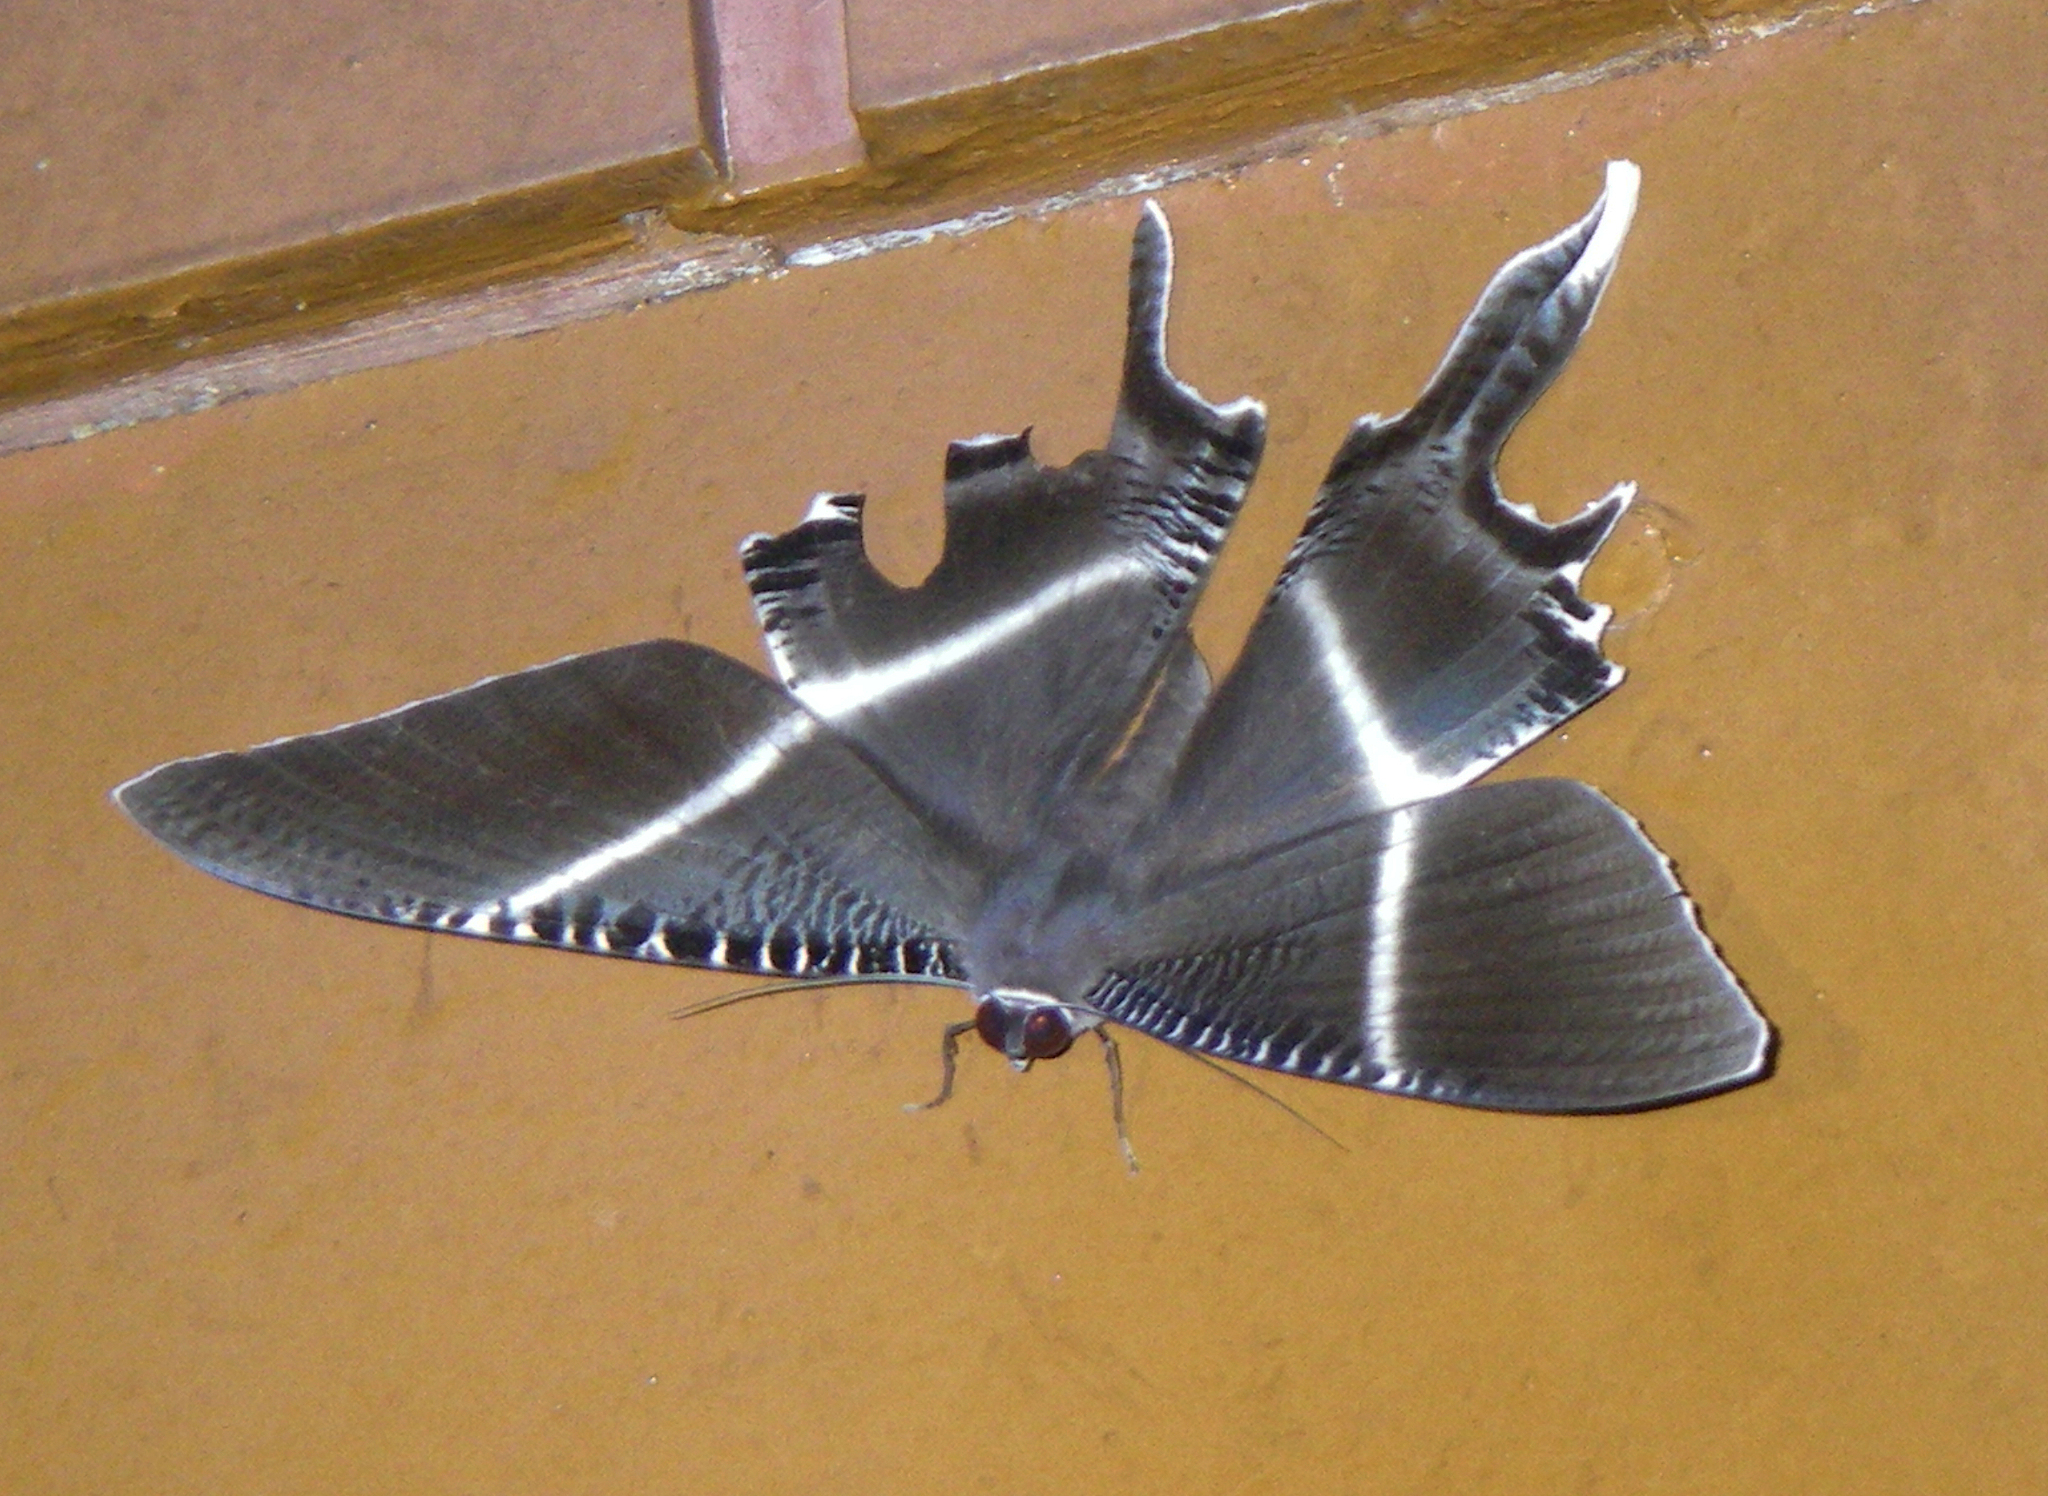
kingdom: Animalia
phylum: Arthropoda
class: Insecta
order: Lepidoptera
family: Uraniidae
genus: Lyssa
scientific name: Lyssa menoetius
